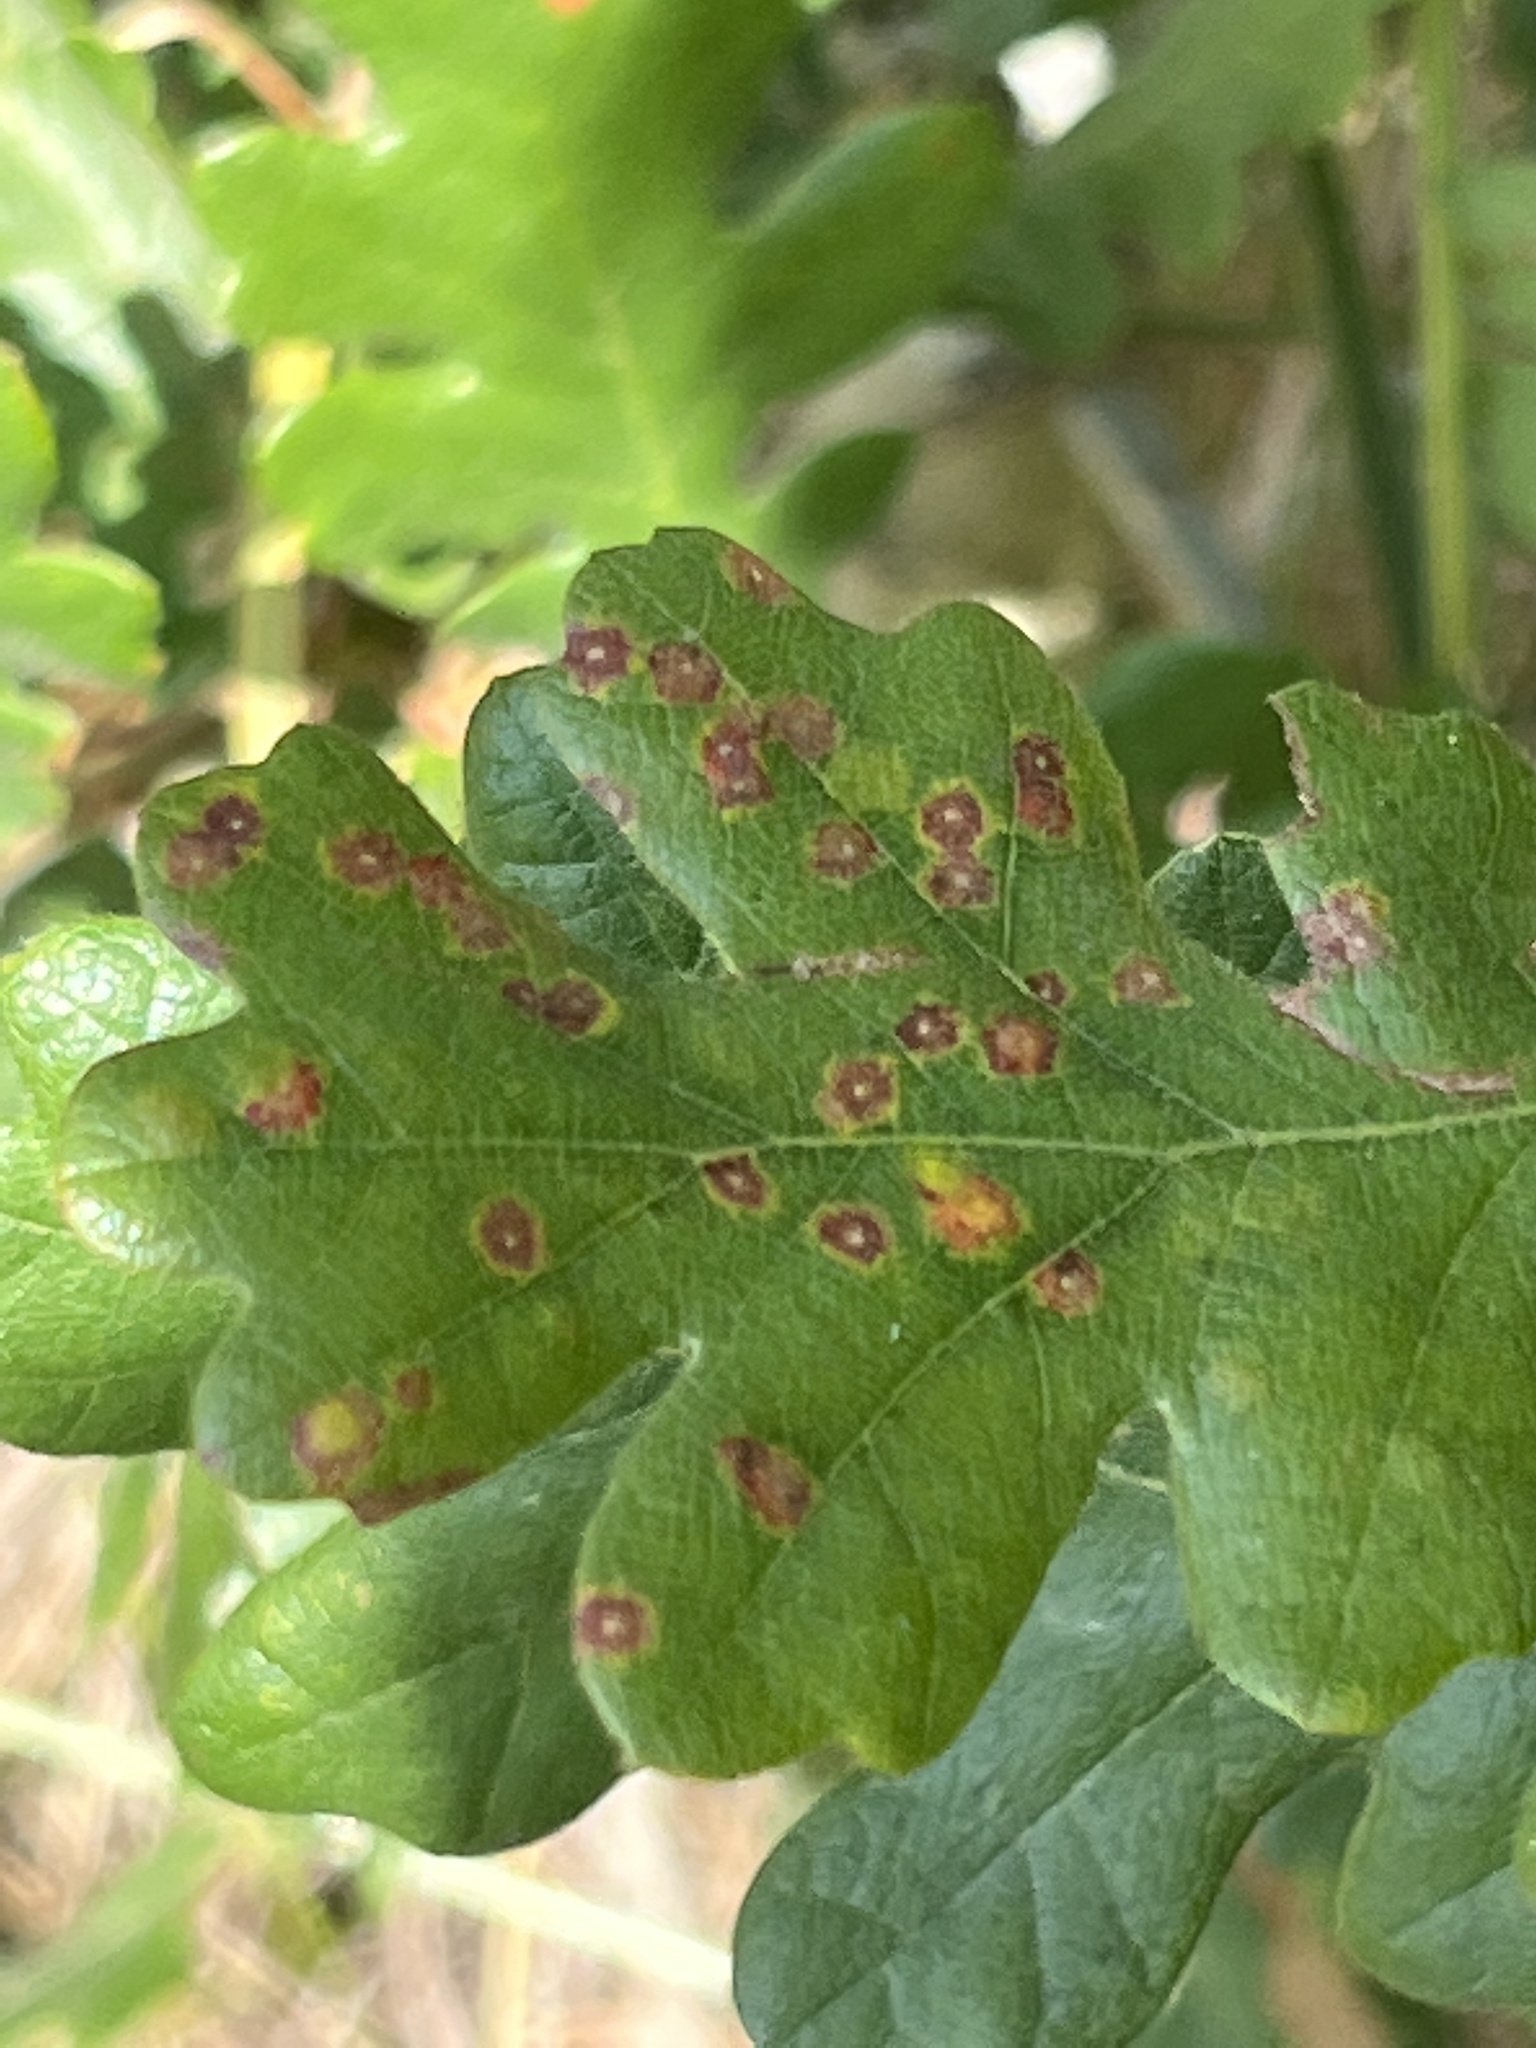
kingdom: Animalia
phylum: Arthropoda
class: Insecta
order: Hymenoptera
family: Cynipidae
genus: Neuroterus
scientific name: Neuroterus saltarius
